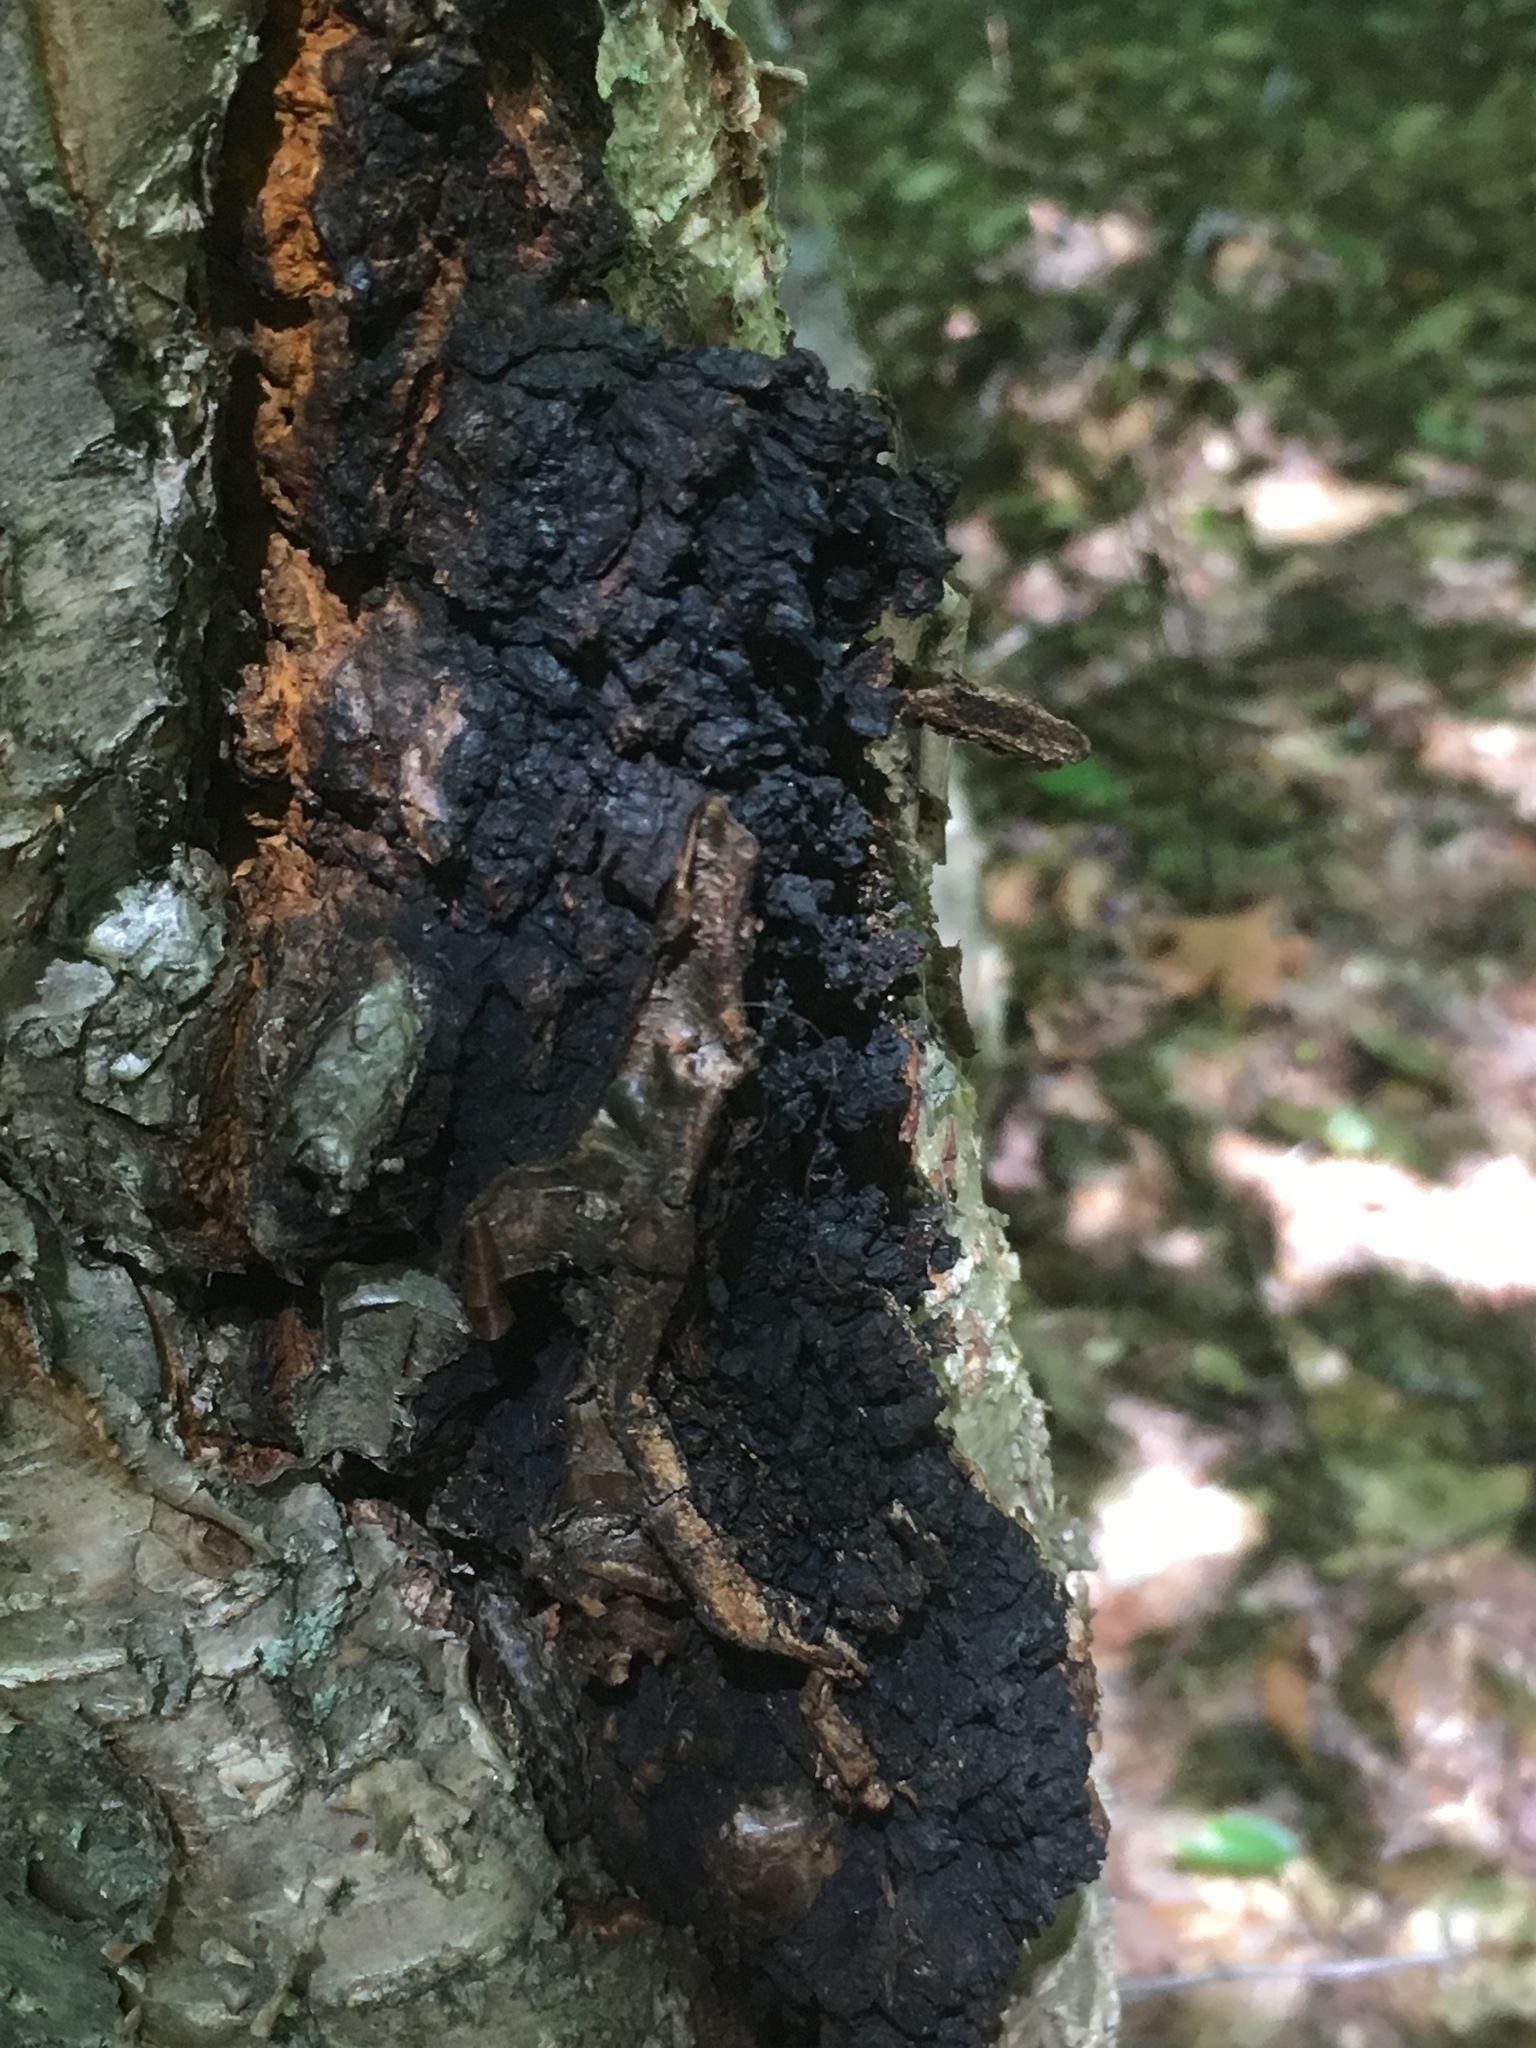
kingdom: Fungi
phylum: Basidiomycota
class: Agaricomycetes
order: Hymenochaetales
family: Hymenochaetaceae
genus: Inonotus
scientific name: Inonotus obliquus
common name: Chaga
